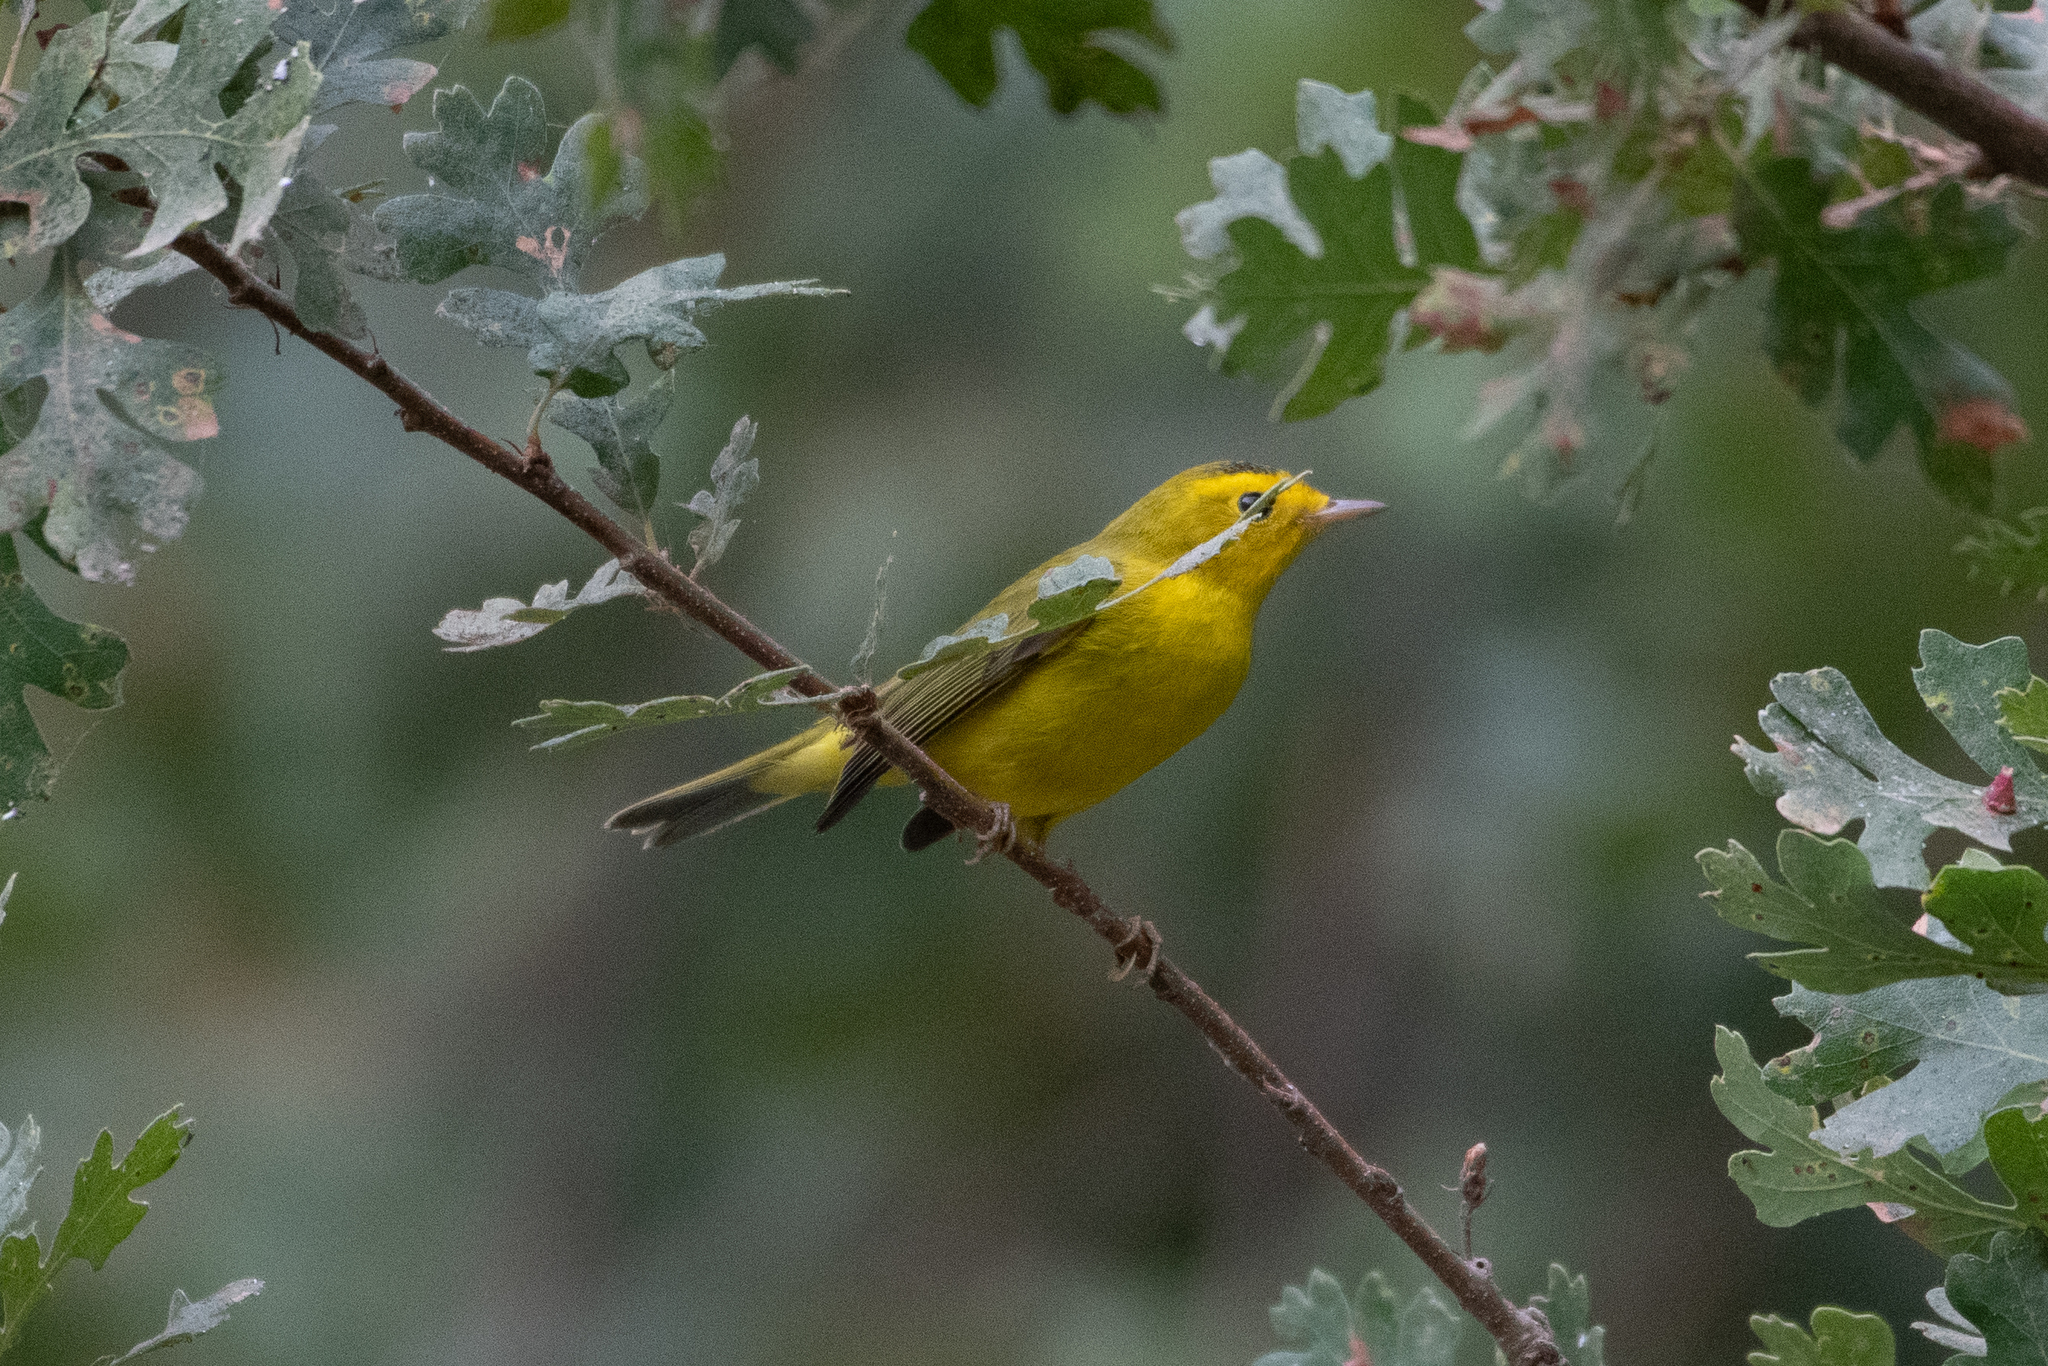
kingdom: Animalia
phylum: Chordata
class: Aves
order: Passeriformes
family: Parulidae
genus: Cardellina
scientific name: Cardellina pusilla
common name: Wilson's warbler
